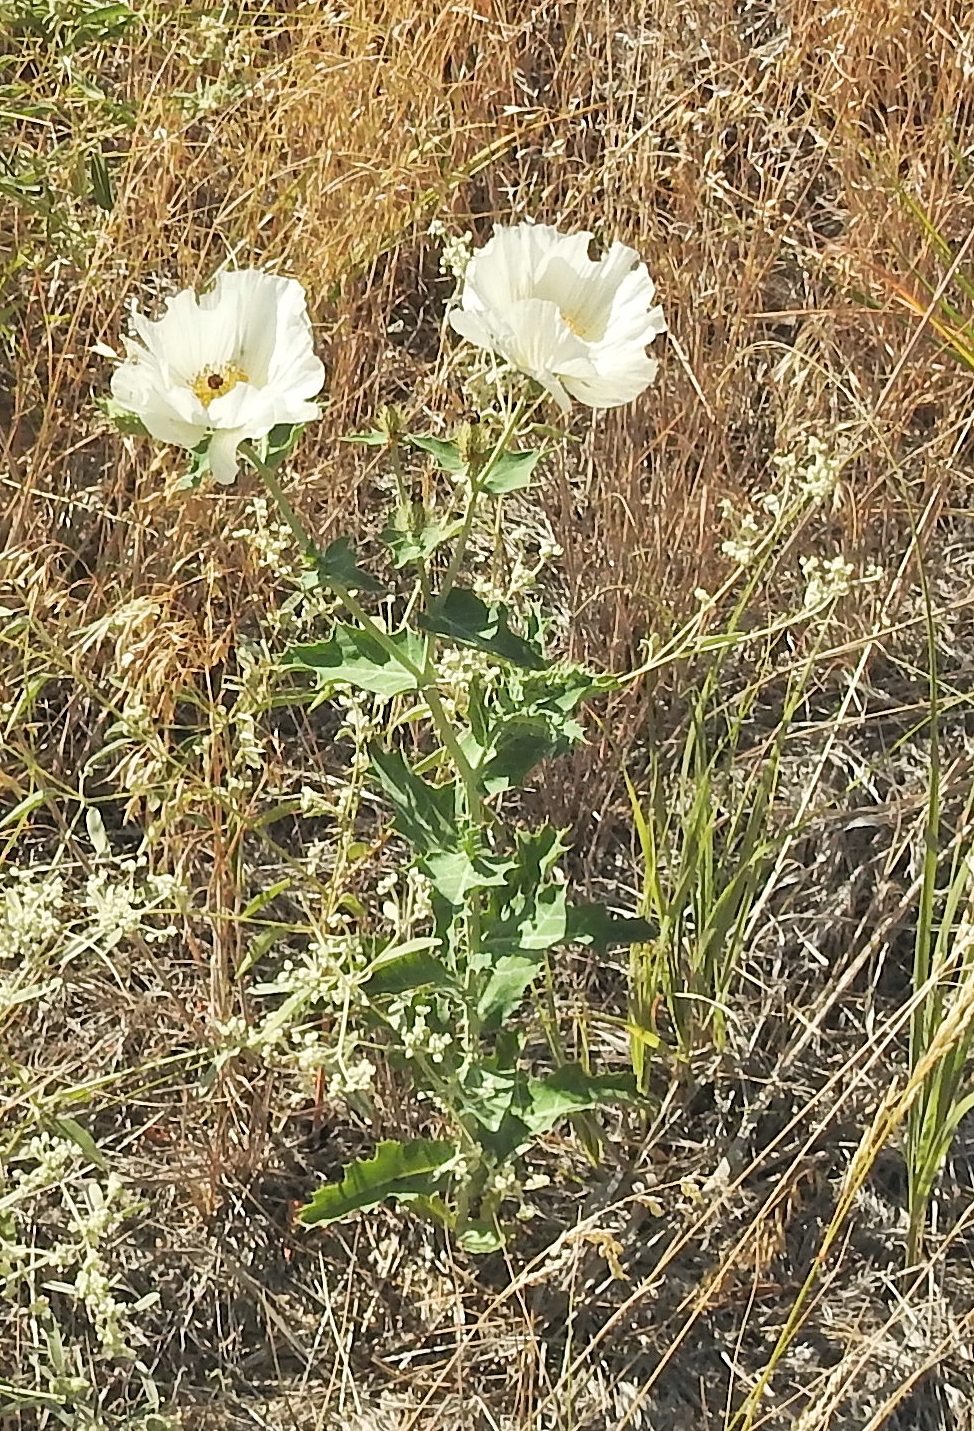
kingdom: Plantae
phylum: Tracheophyta
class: Magnoliopsida
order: Ranunculales
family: Papaveraceae
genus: Argemone
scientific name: Argemone polyanthemos
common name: Plains prickly-poppy
